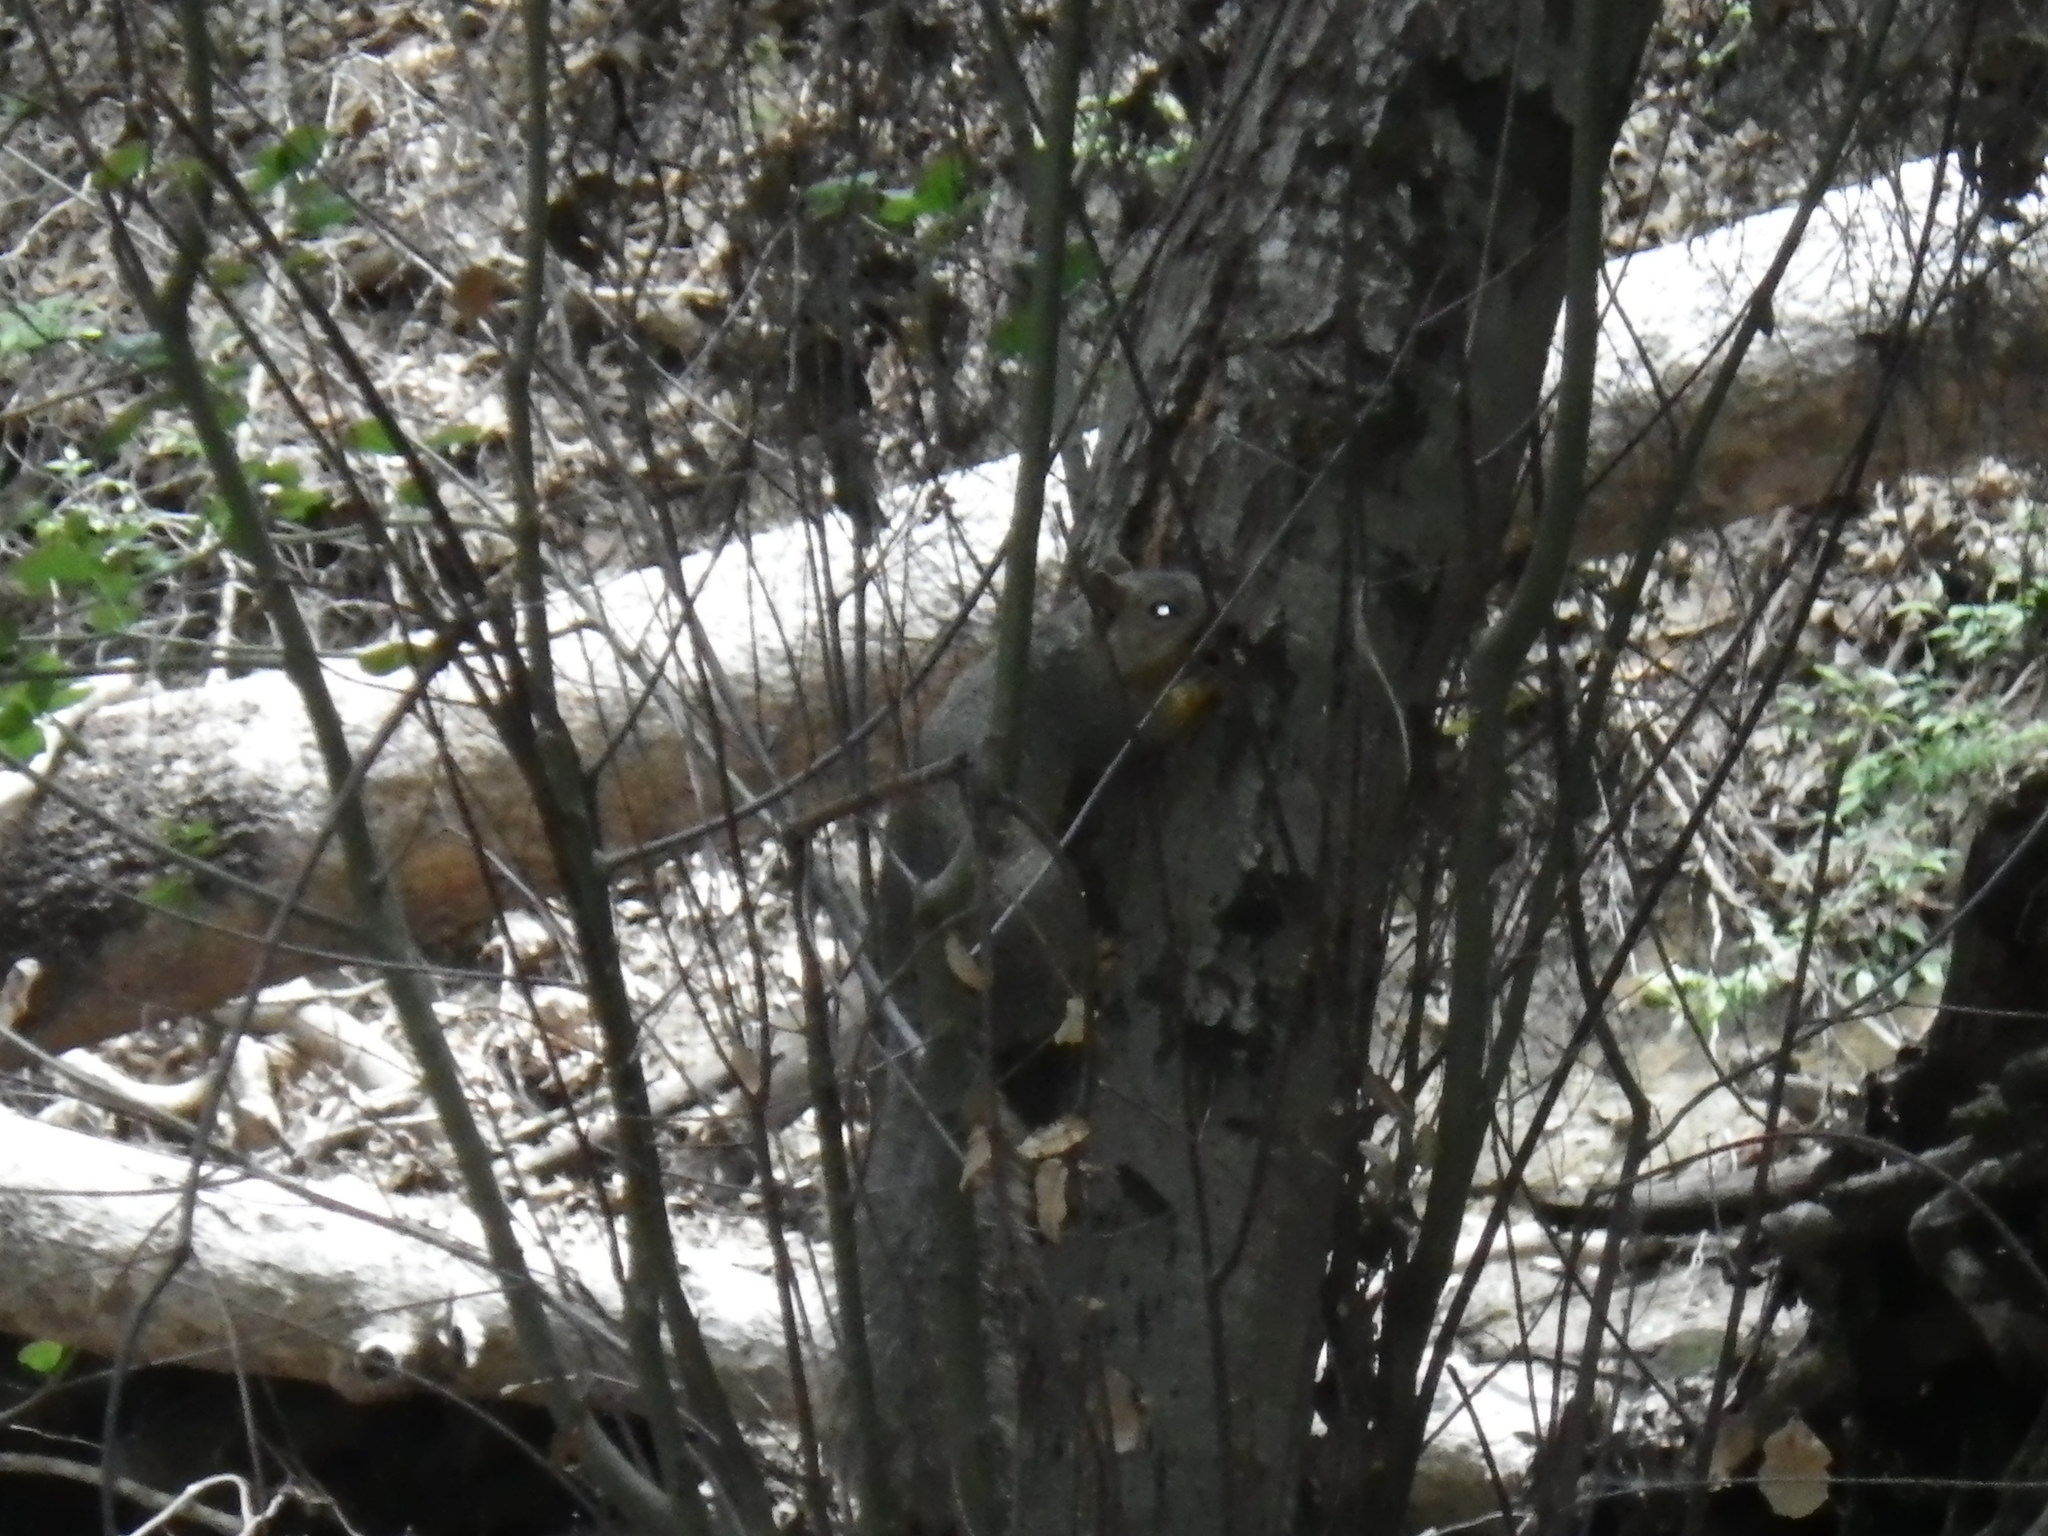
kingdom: Animalia
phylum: Chordata
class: Mammalia
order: Rodentia
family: Sciuridae
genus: Sciurus
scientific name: Sciurus griseus
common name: Western gray squirrel
